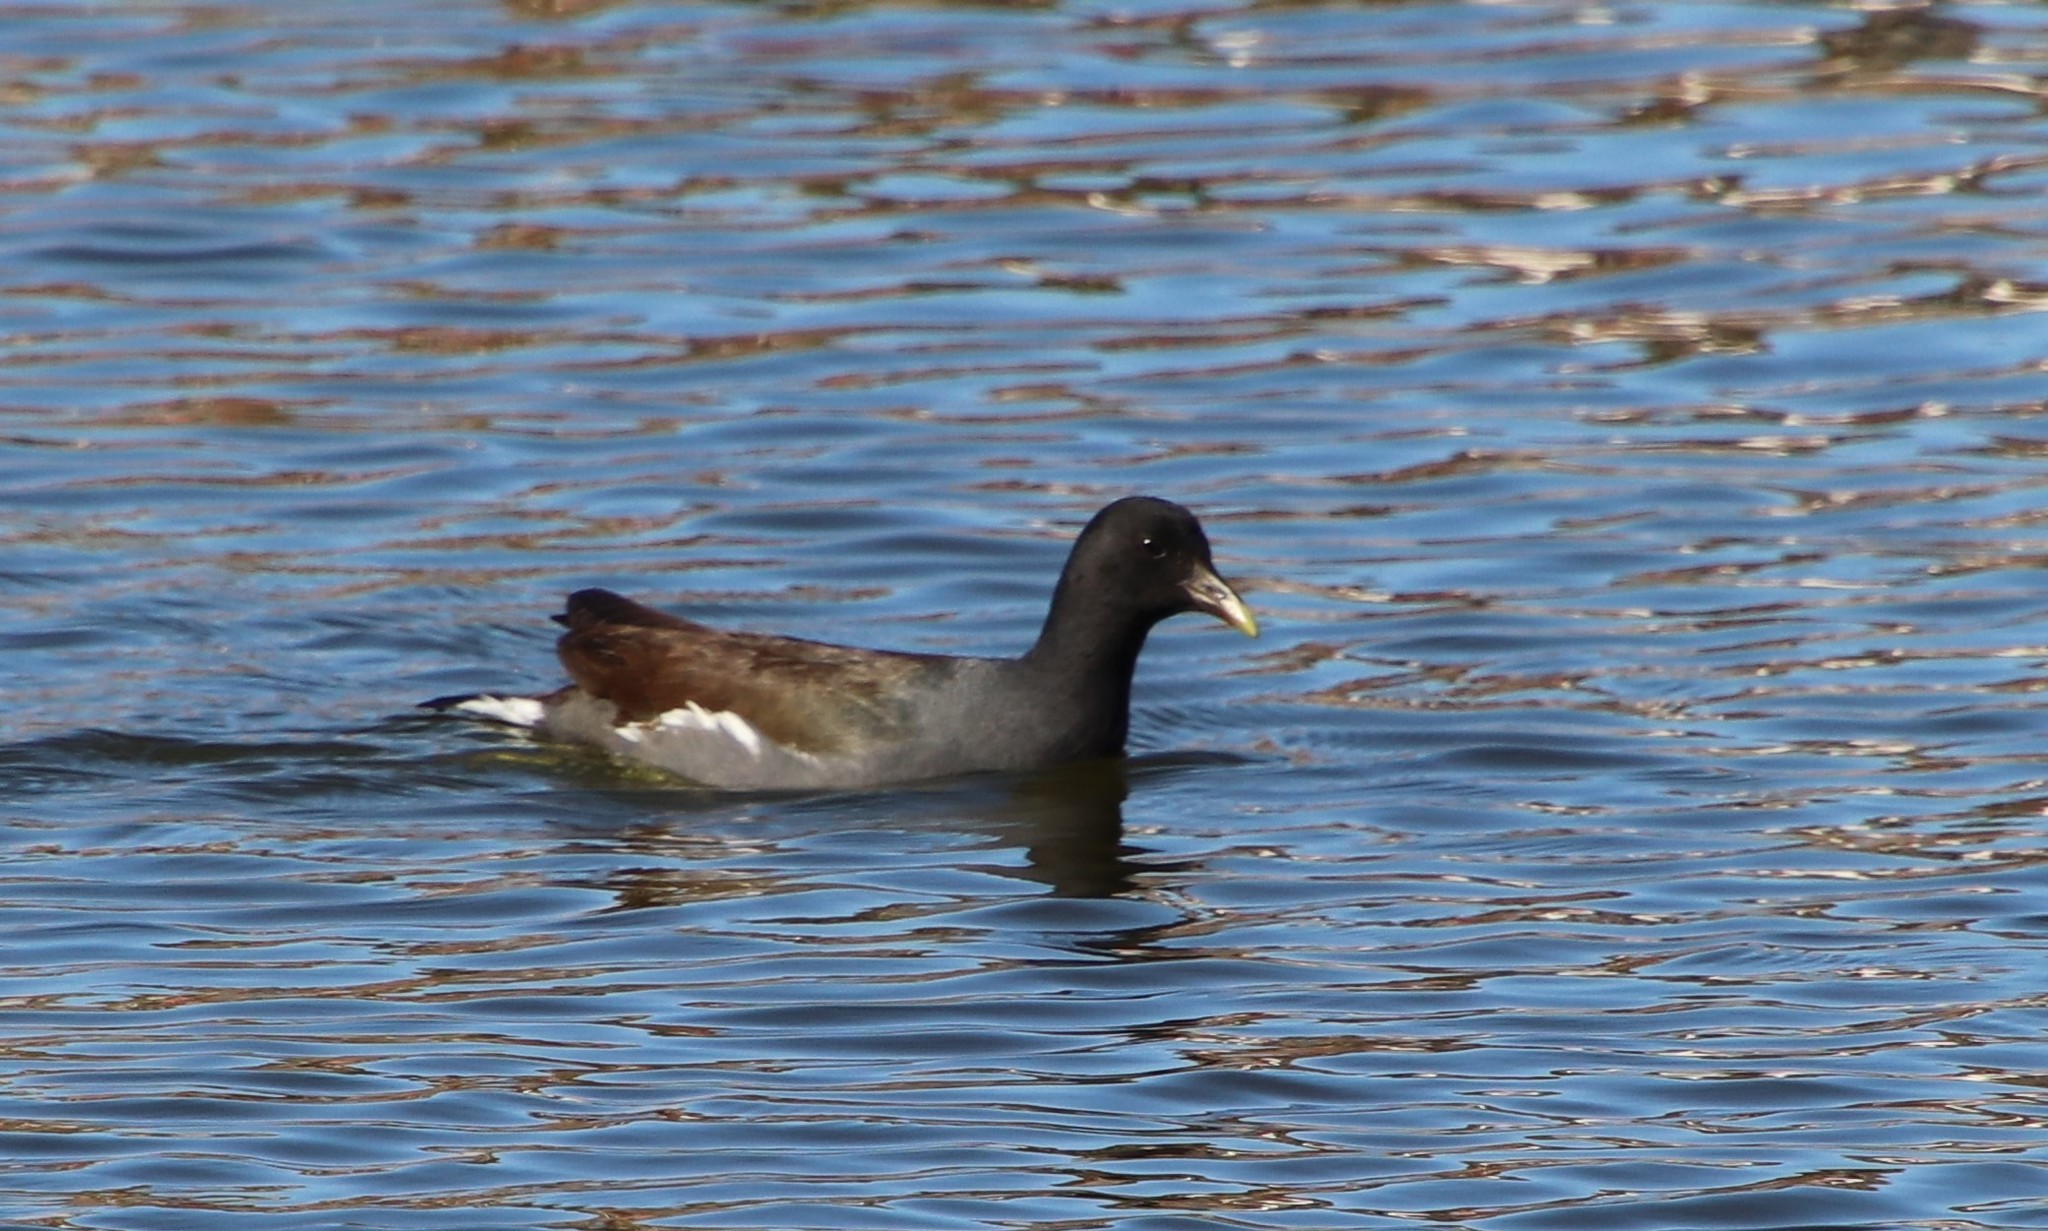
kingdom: Animalia
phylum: Chordata
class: Aves
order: Gruiformes
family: Rallidae
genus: Gallinula
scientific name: Gallinula chloropus
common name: Common moorhen
